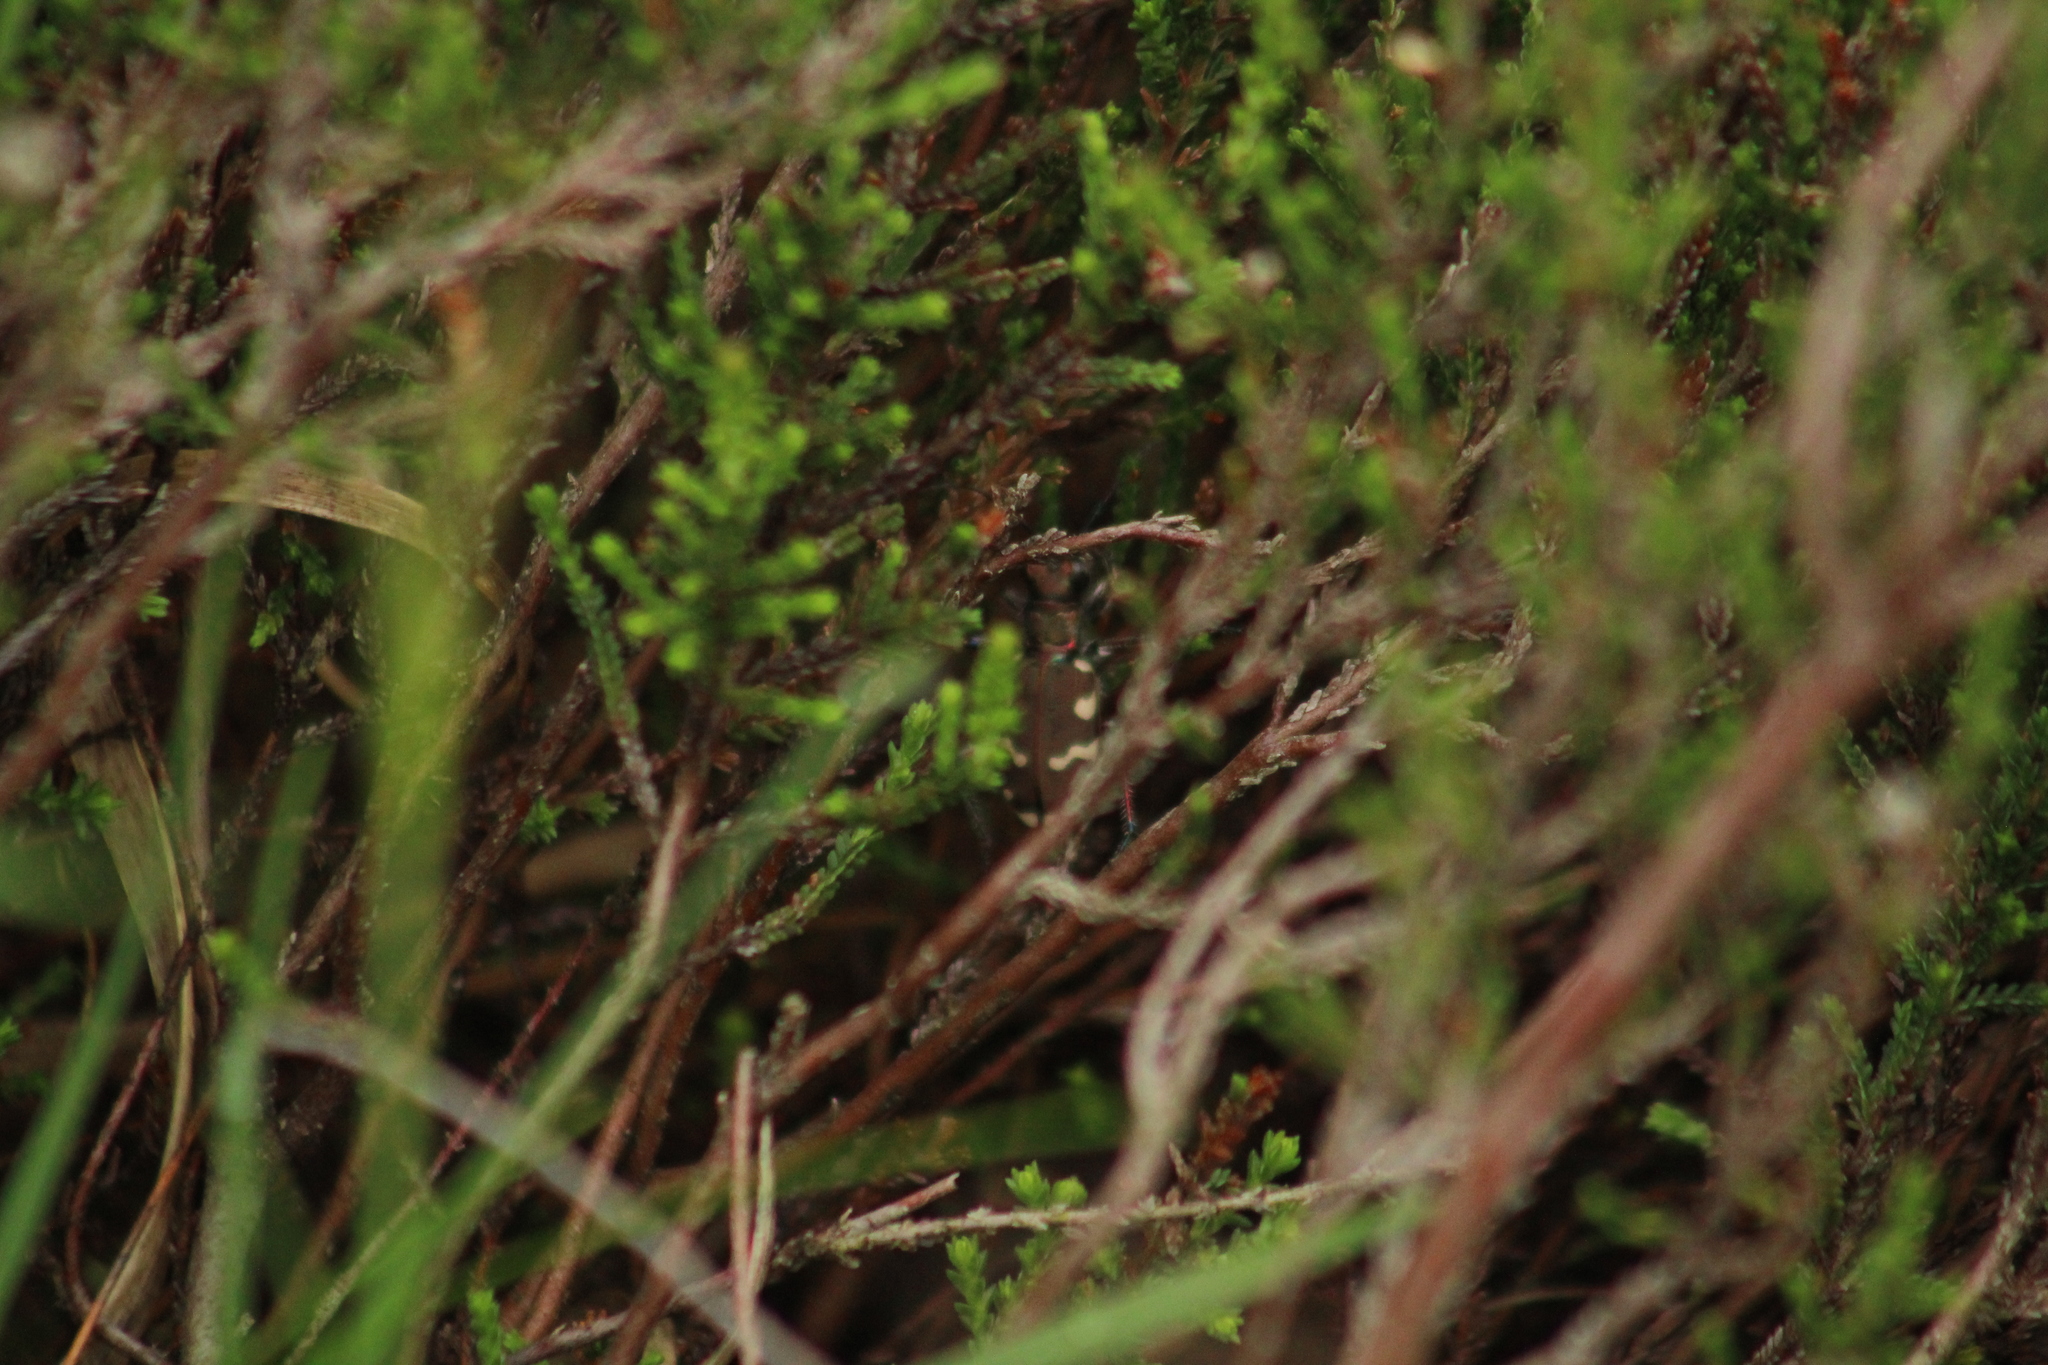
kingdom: Animalia
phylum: Arthropoda
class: Insecta
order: Coleoptera
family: Carabidae
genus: Cicindela
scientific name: Cicindela hybrida
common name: Northern dune tiger beetle
